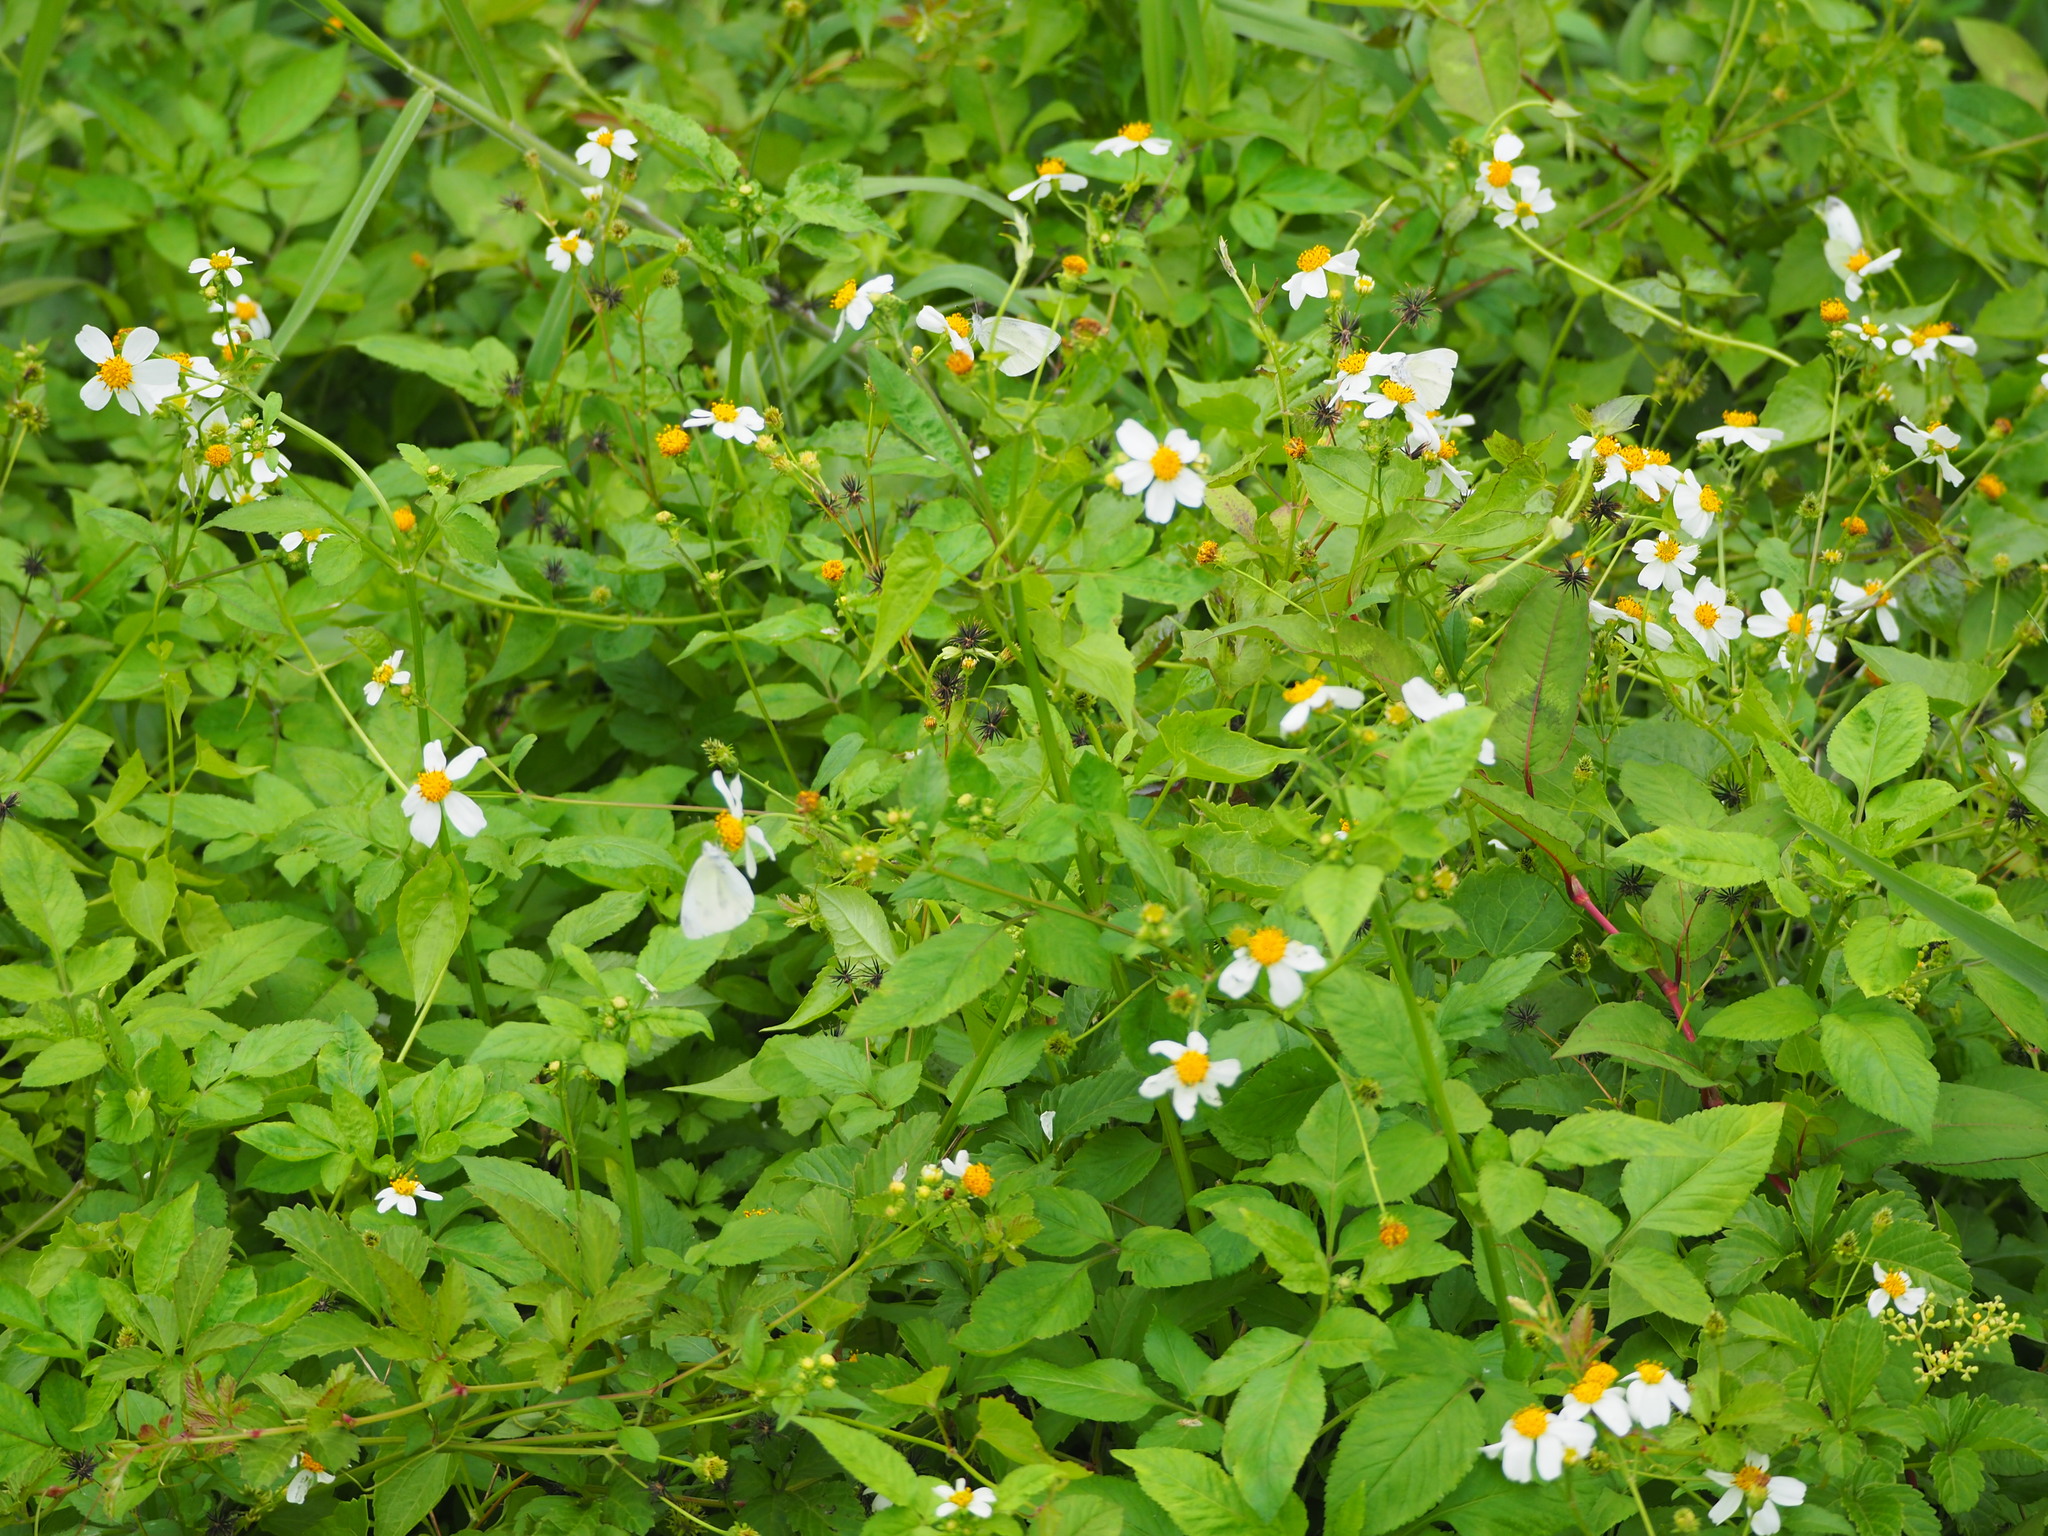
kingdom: Plantae
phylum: Tracheophyta
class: Magnoliopsida
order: Asterales
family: Asteraceae
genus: Bidens
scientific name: Bidens alba
